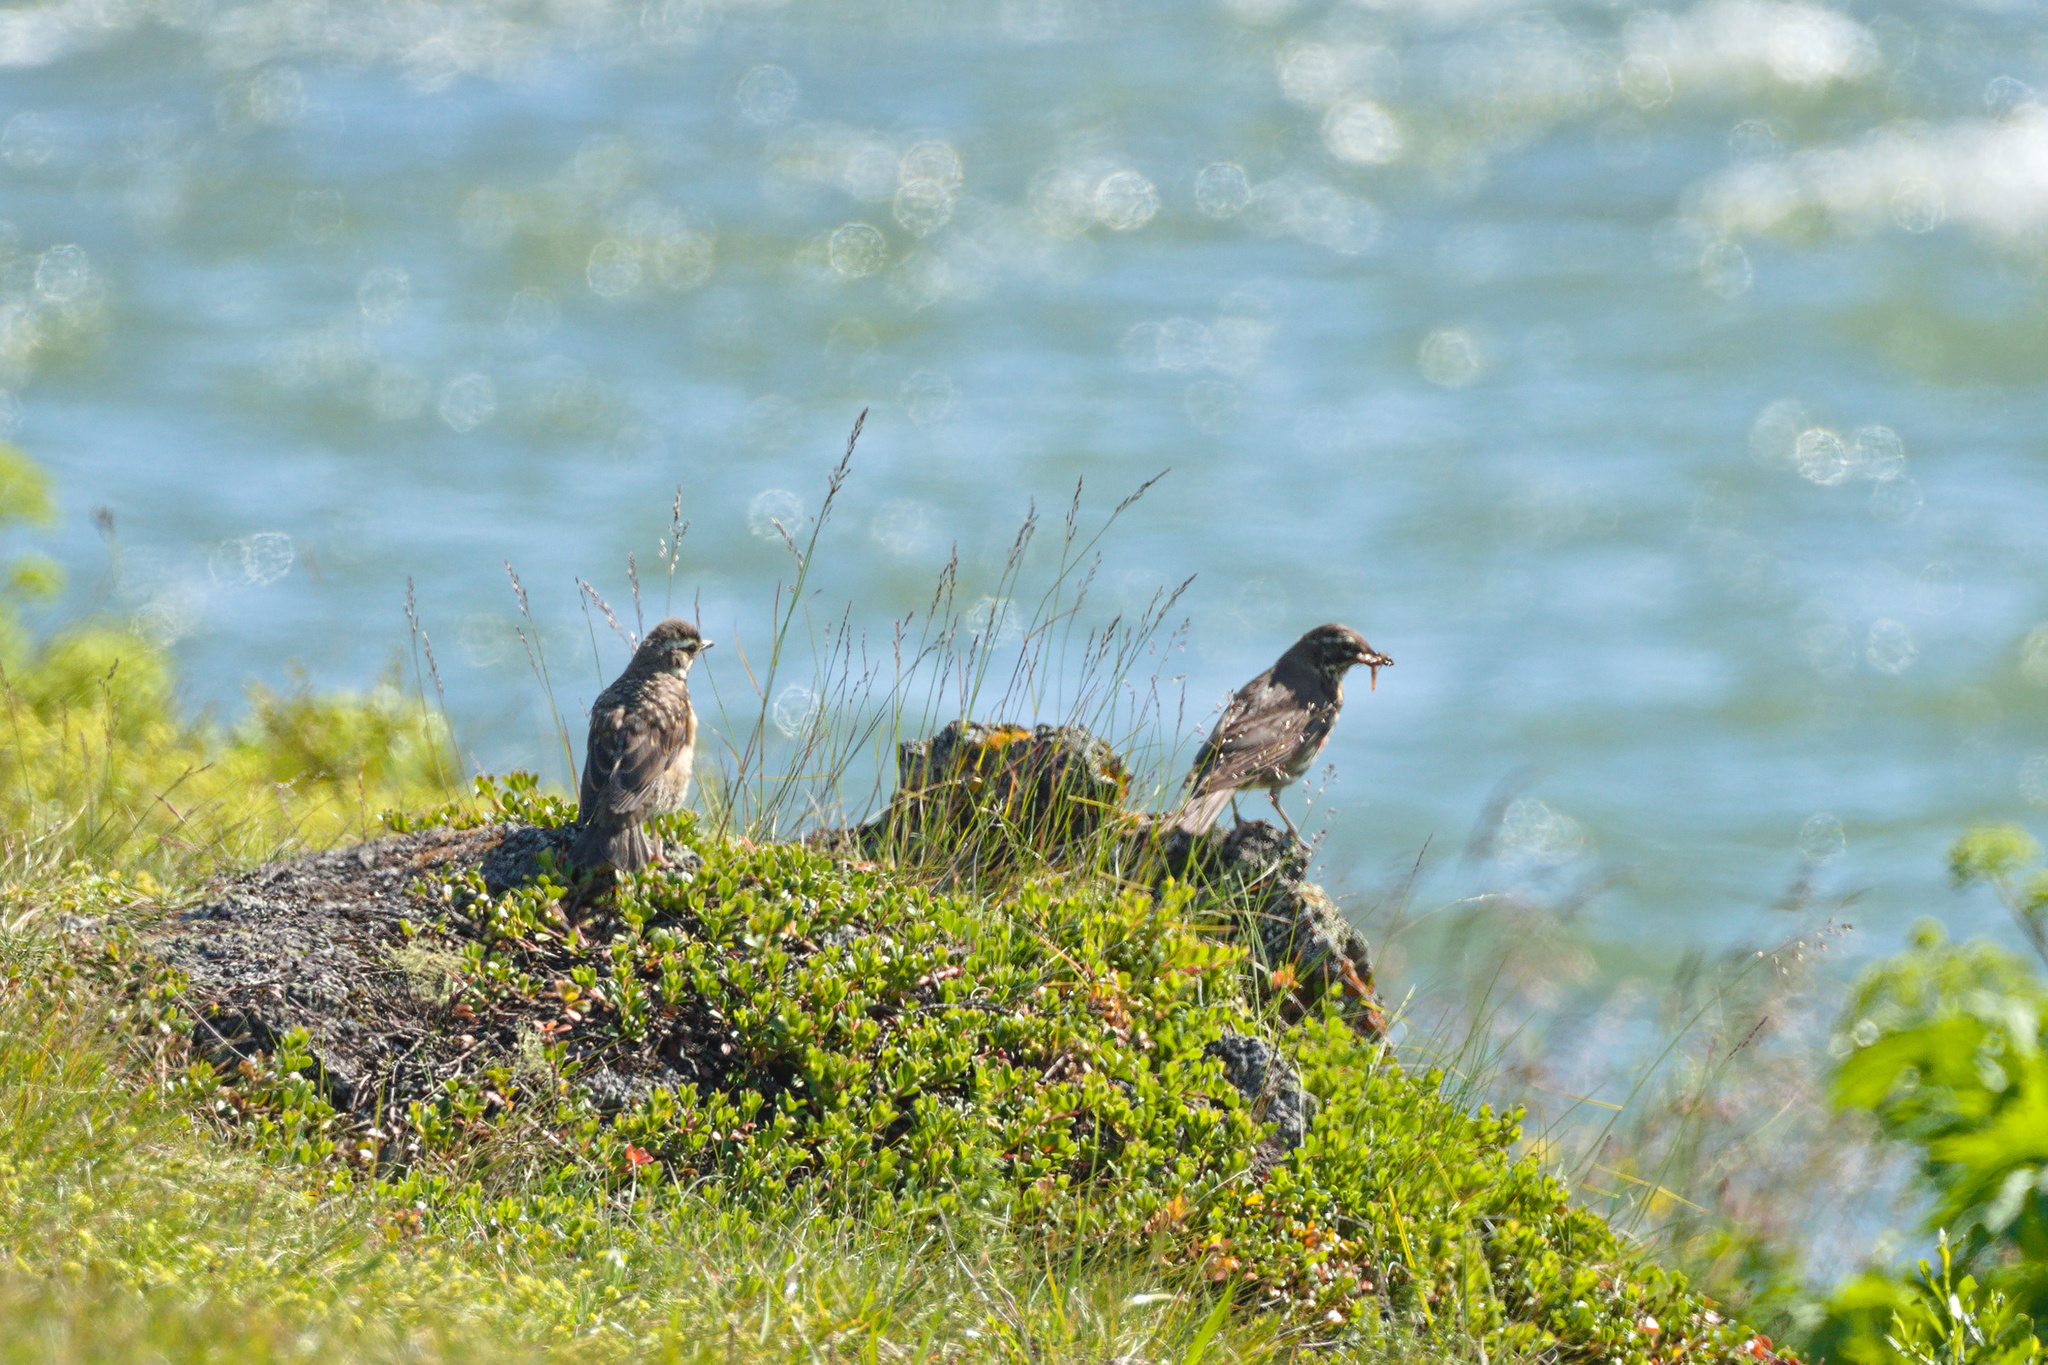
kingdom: Animalia
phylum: Chordata
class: Aves
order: Passeriformes
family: Turdidae
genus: Turdus
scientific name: Turdus iliacus
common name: Redwing
